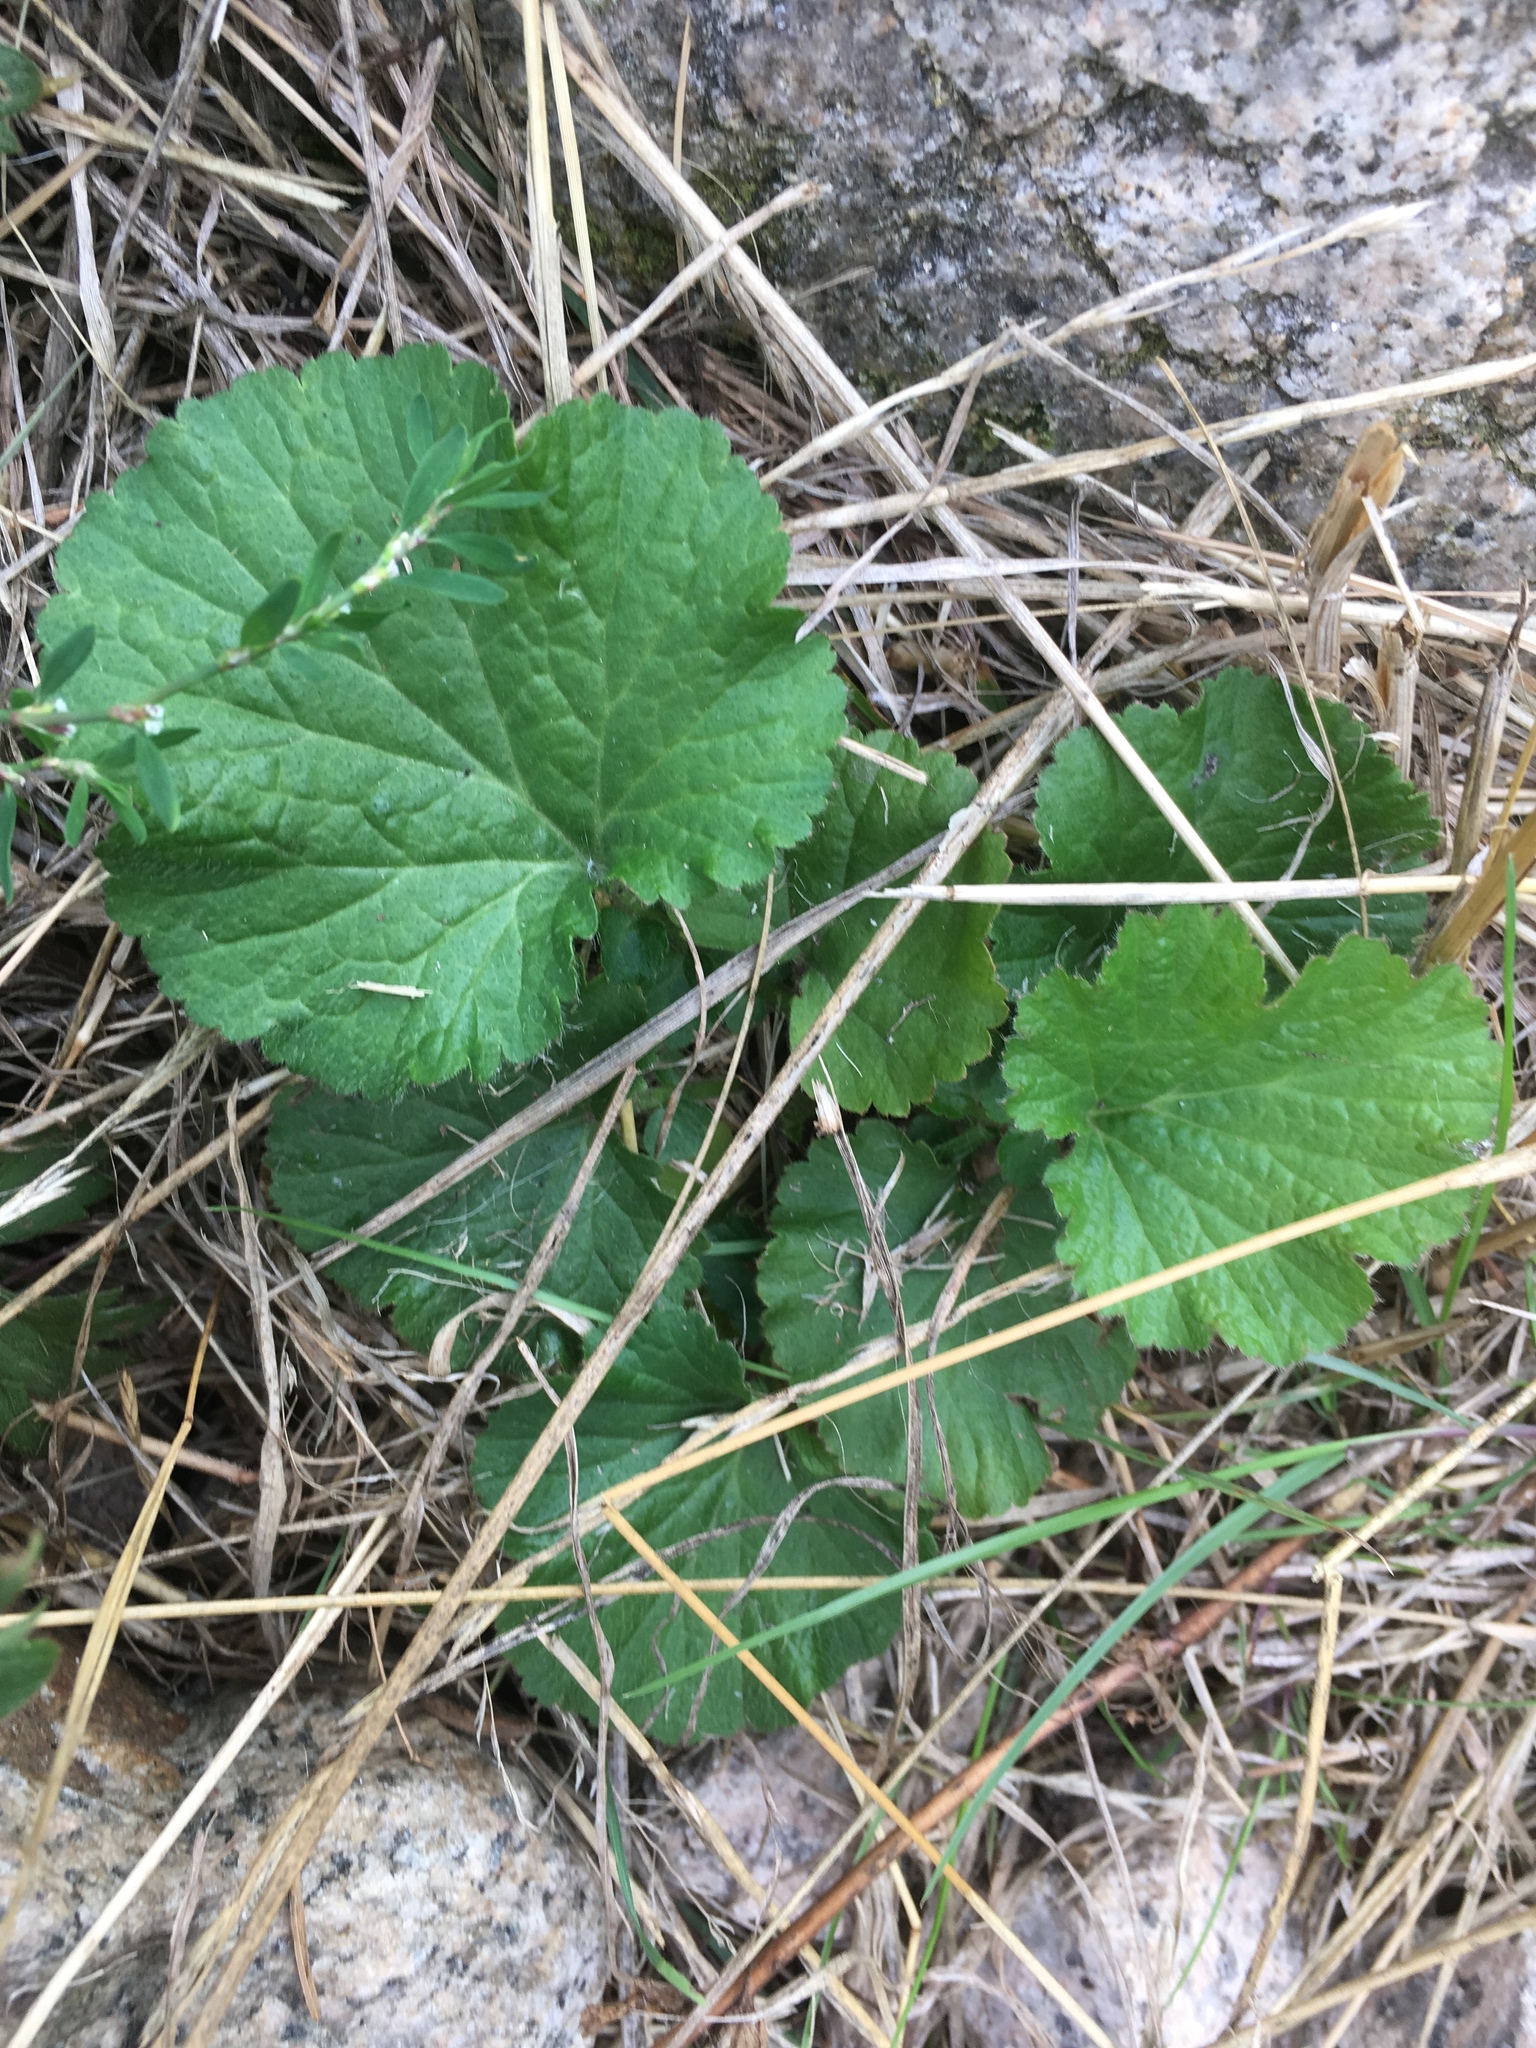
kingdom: Plantae
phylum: Tracheophyta
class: Magnoliopsida
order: Rosales
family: Rosaceae
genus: Geum
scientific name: Geum urbanum
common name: Wood avens
